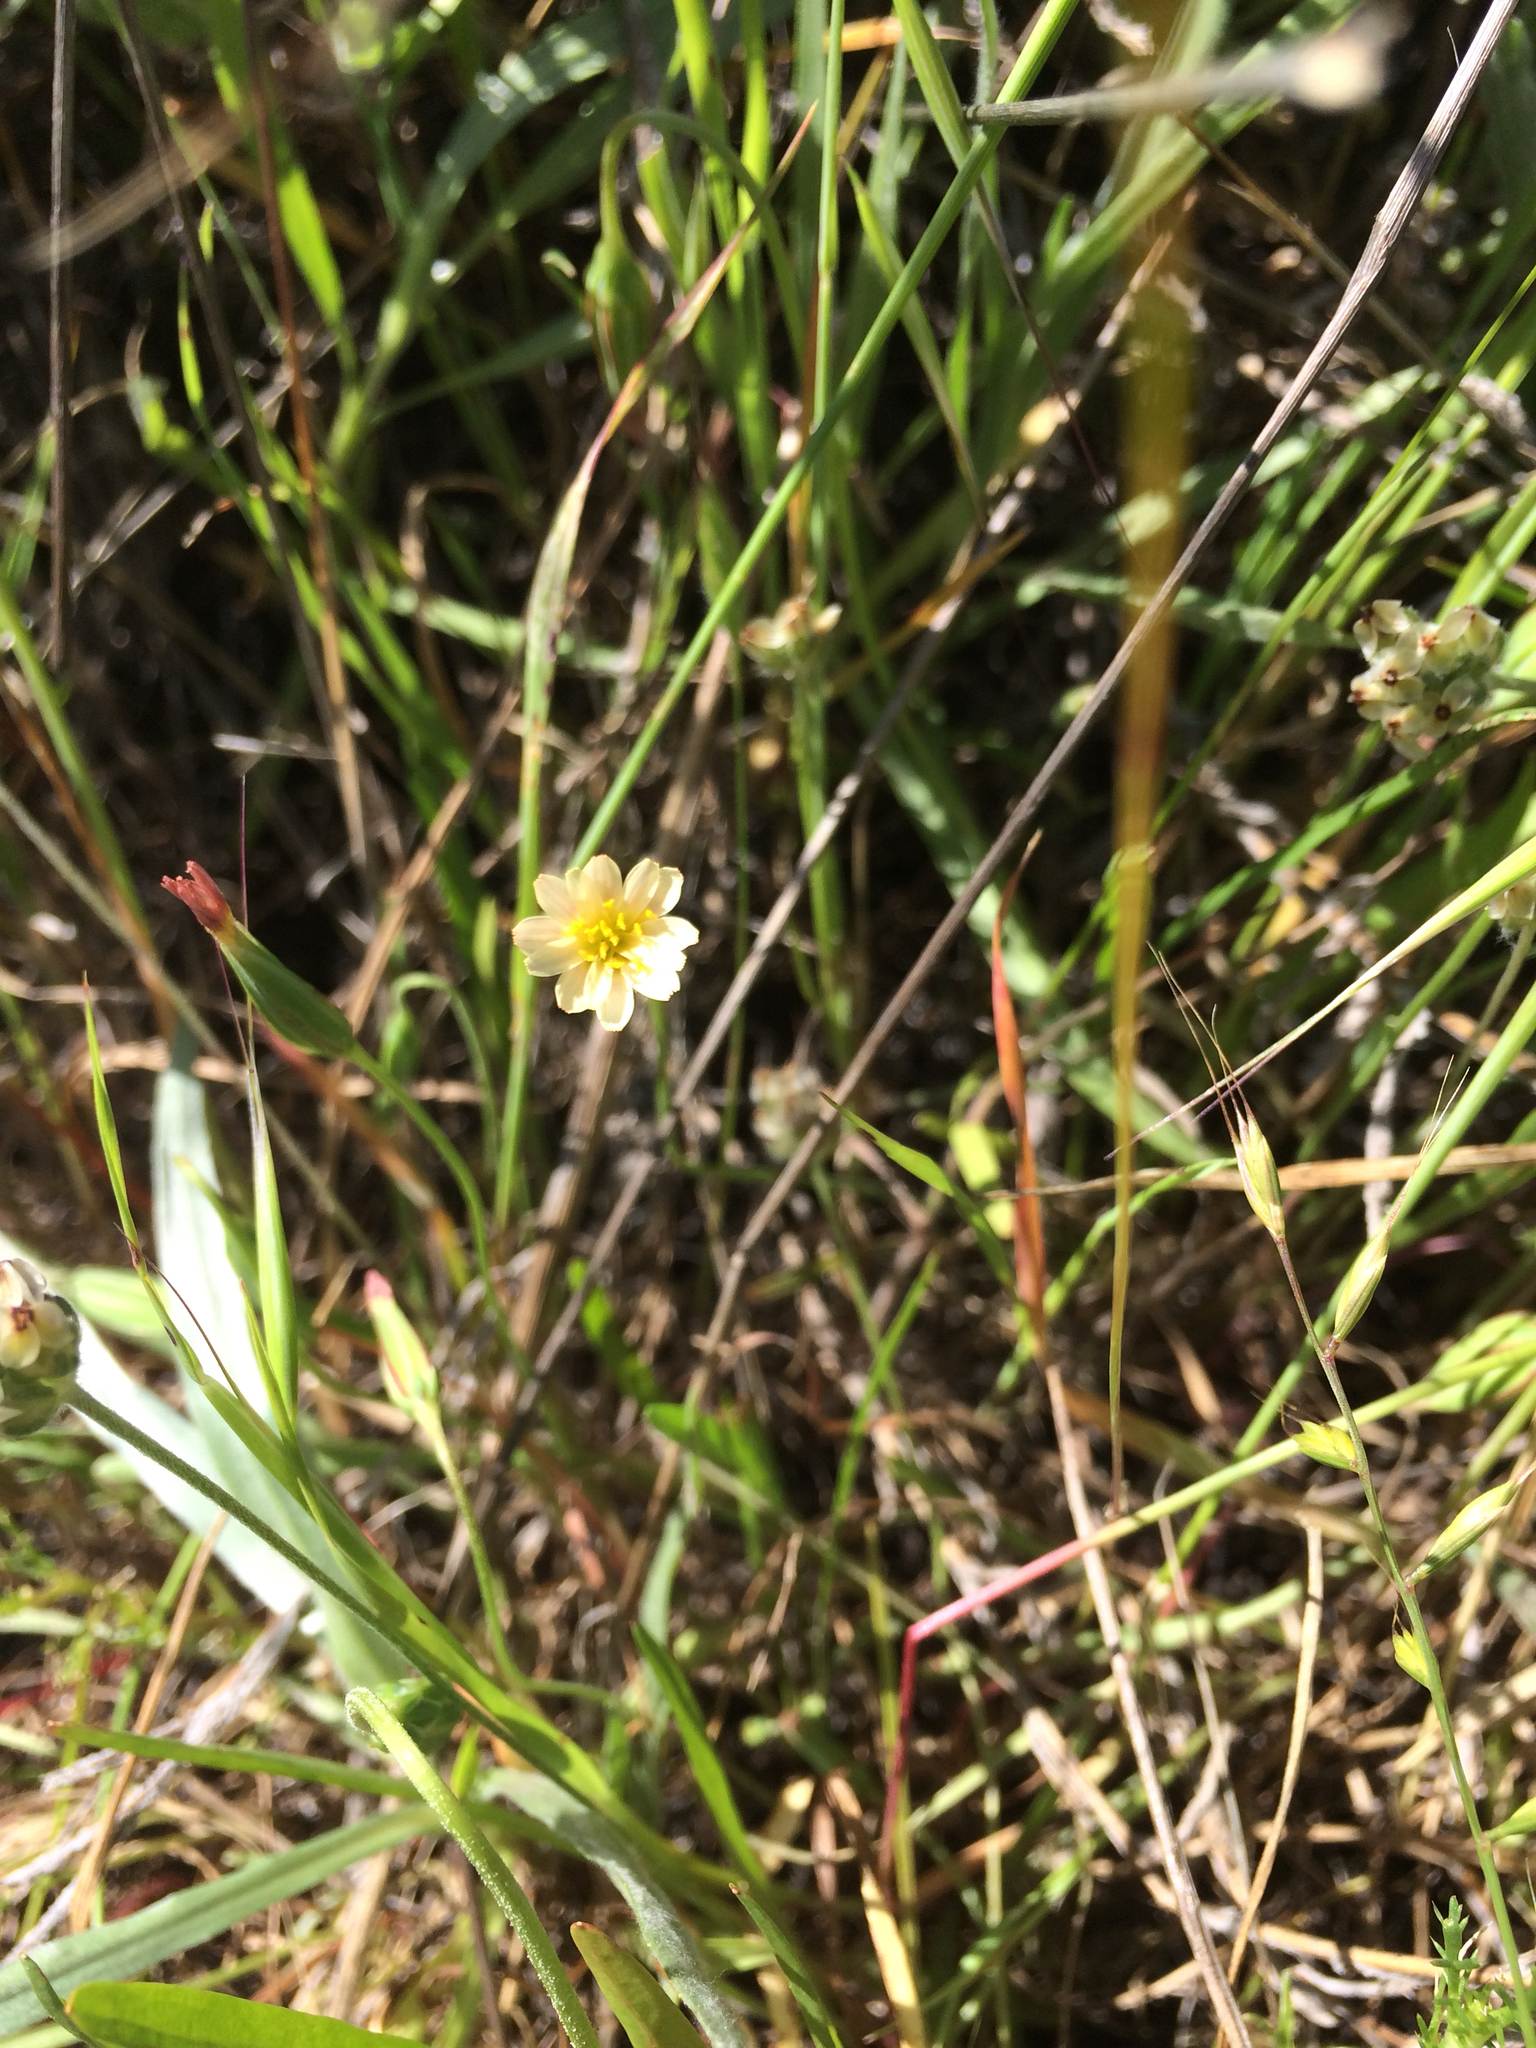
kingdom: Plantae
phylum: Tracheophyta
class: Magnoliopsida
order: Asterales
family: Asteraceae
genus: Microseris
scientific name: Microseris douglasii
